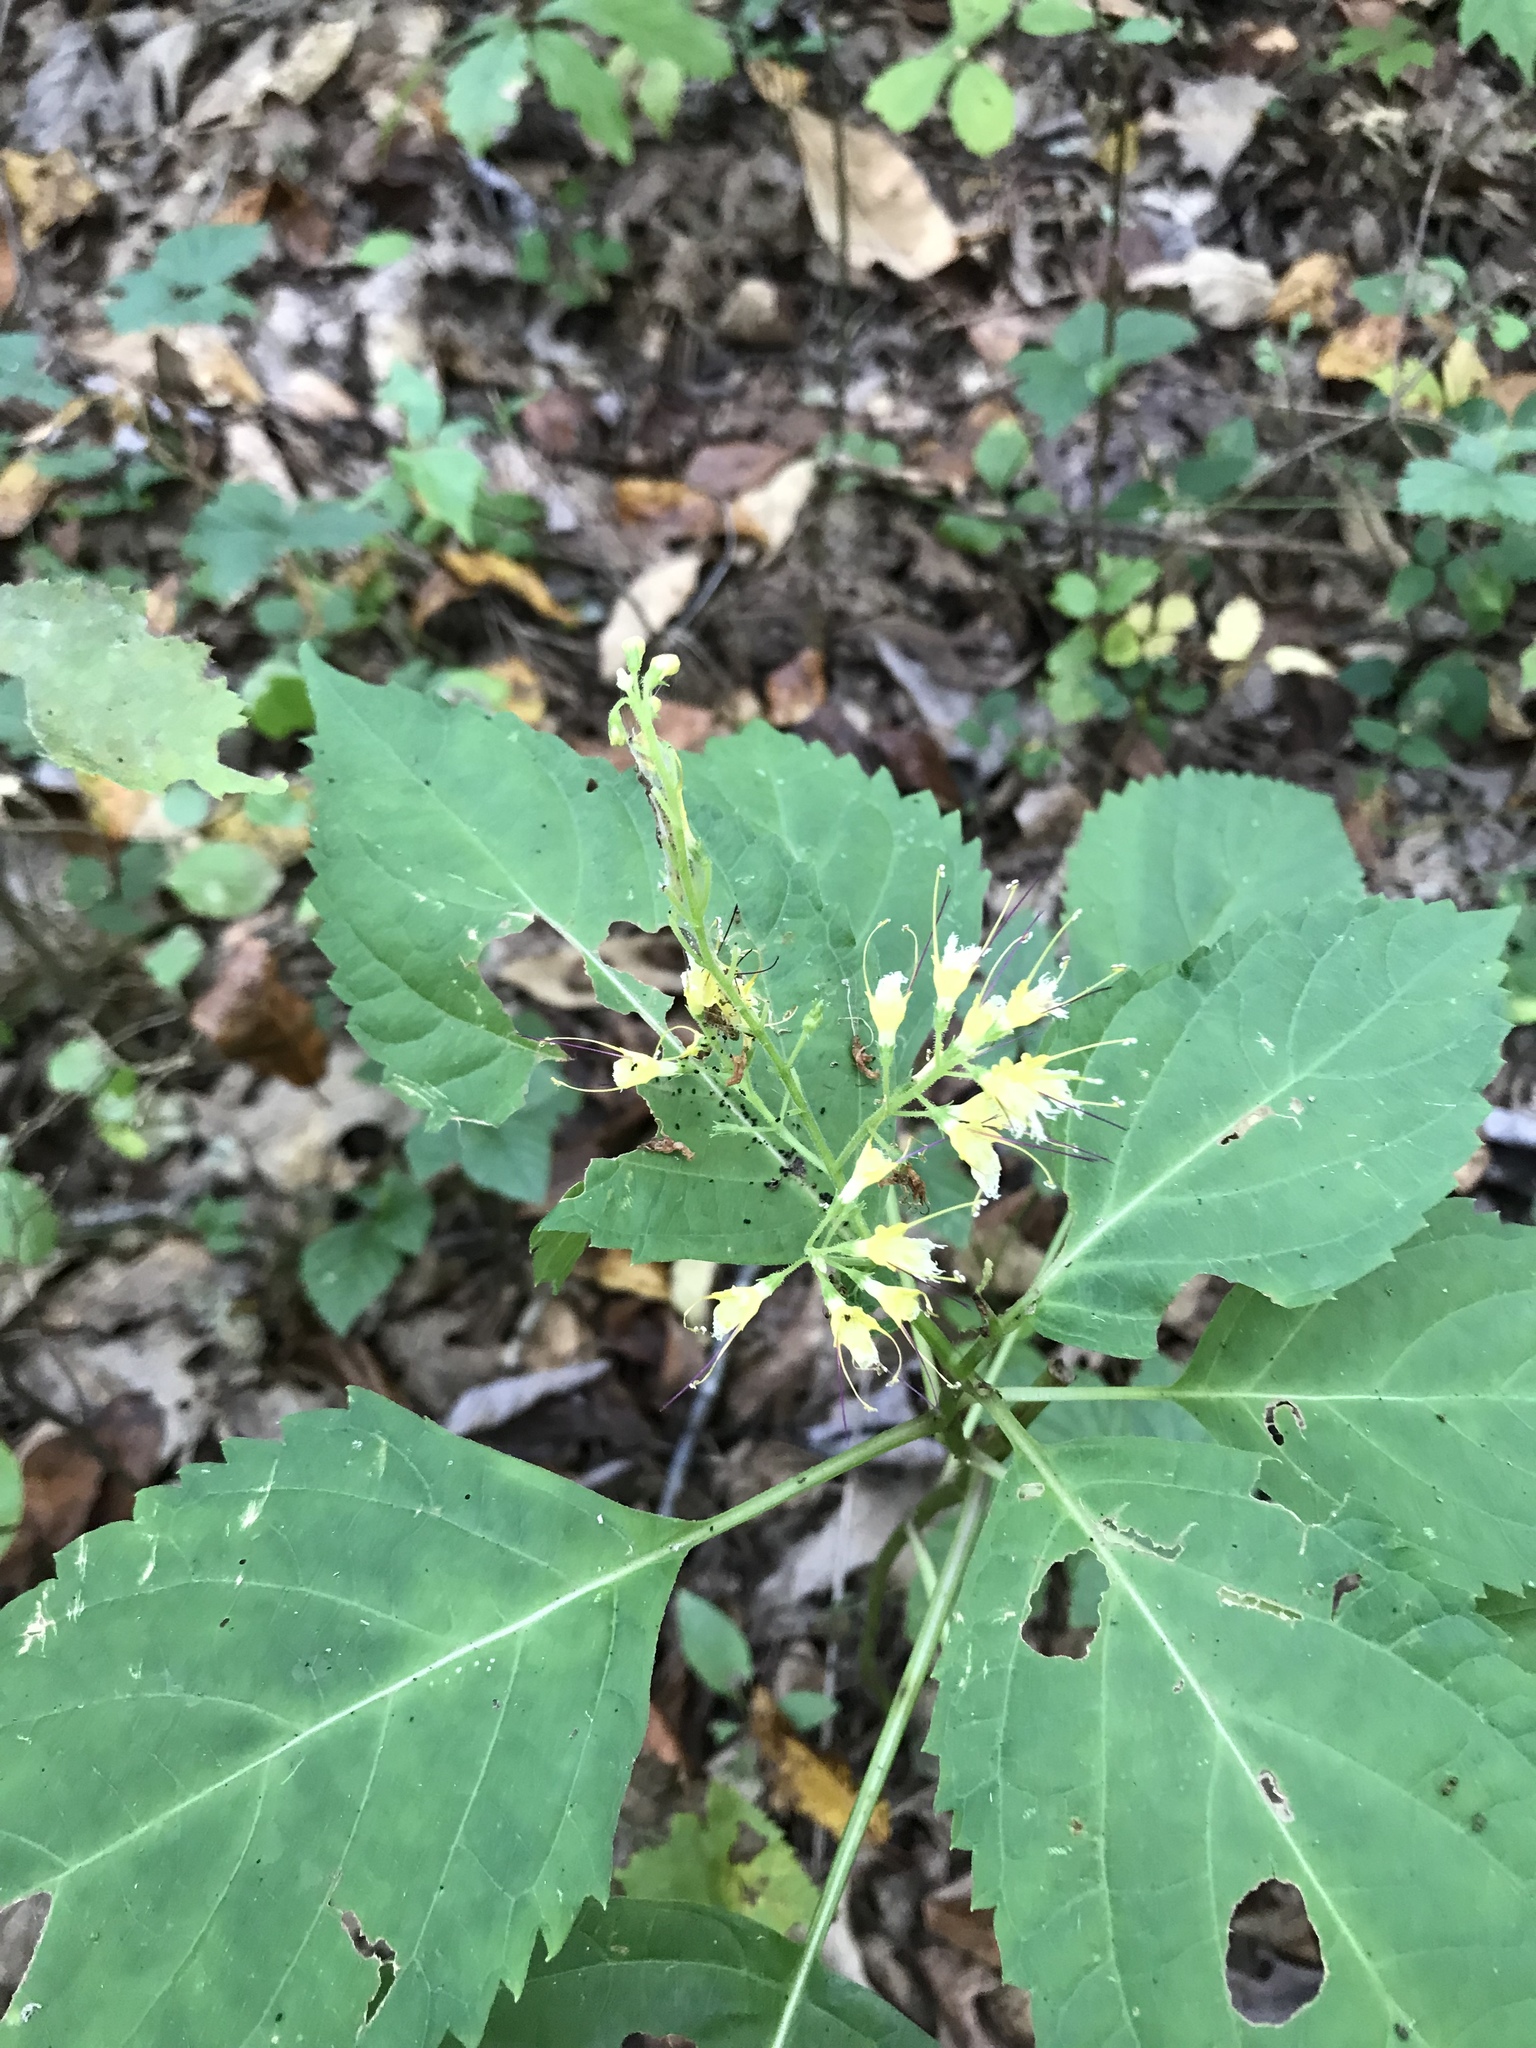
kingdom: Plantae
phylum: Tracheophyta
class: Magnoliopsida
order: Lamiales
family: Lamiaceae
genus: Collinsonia
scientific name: Collinsonia canadensis
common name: Northern horsebalm
